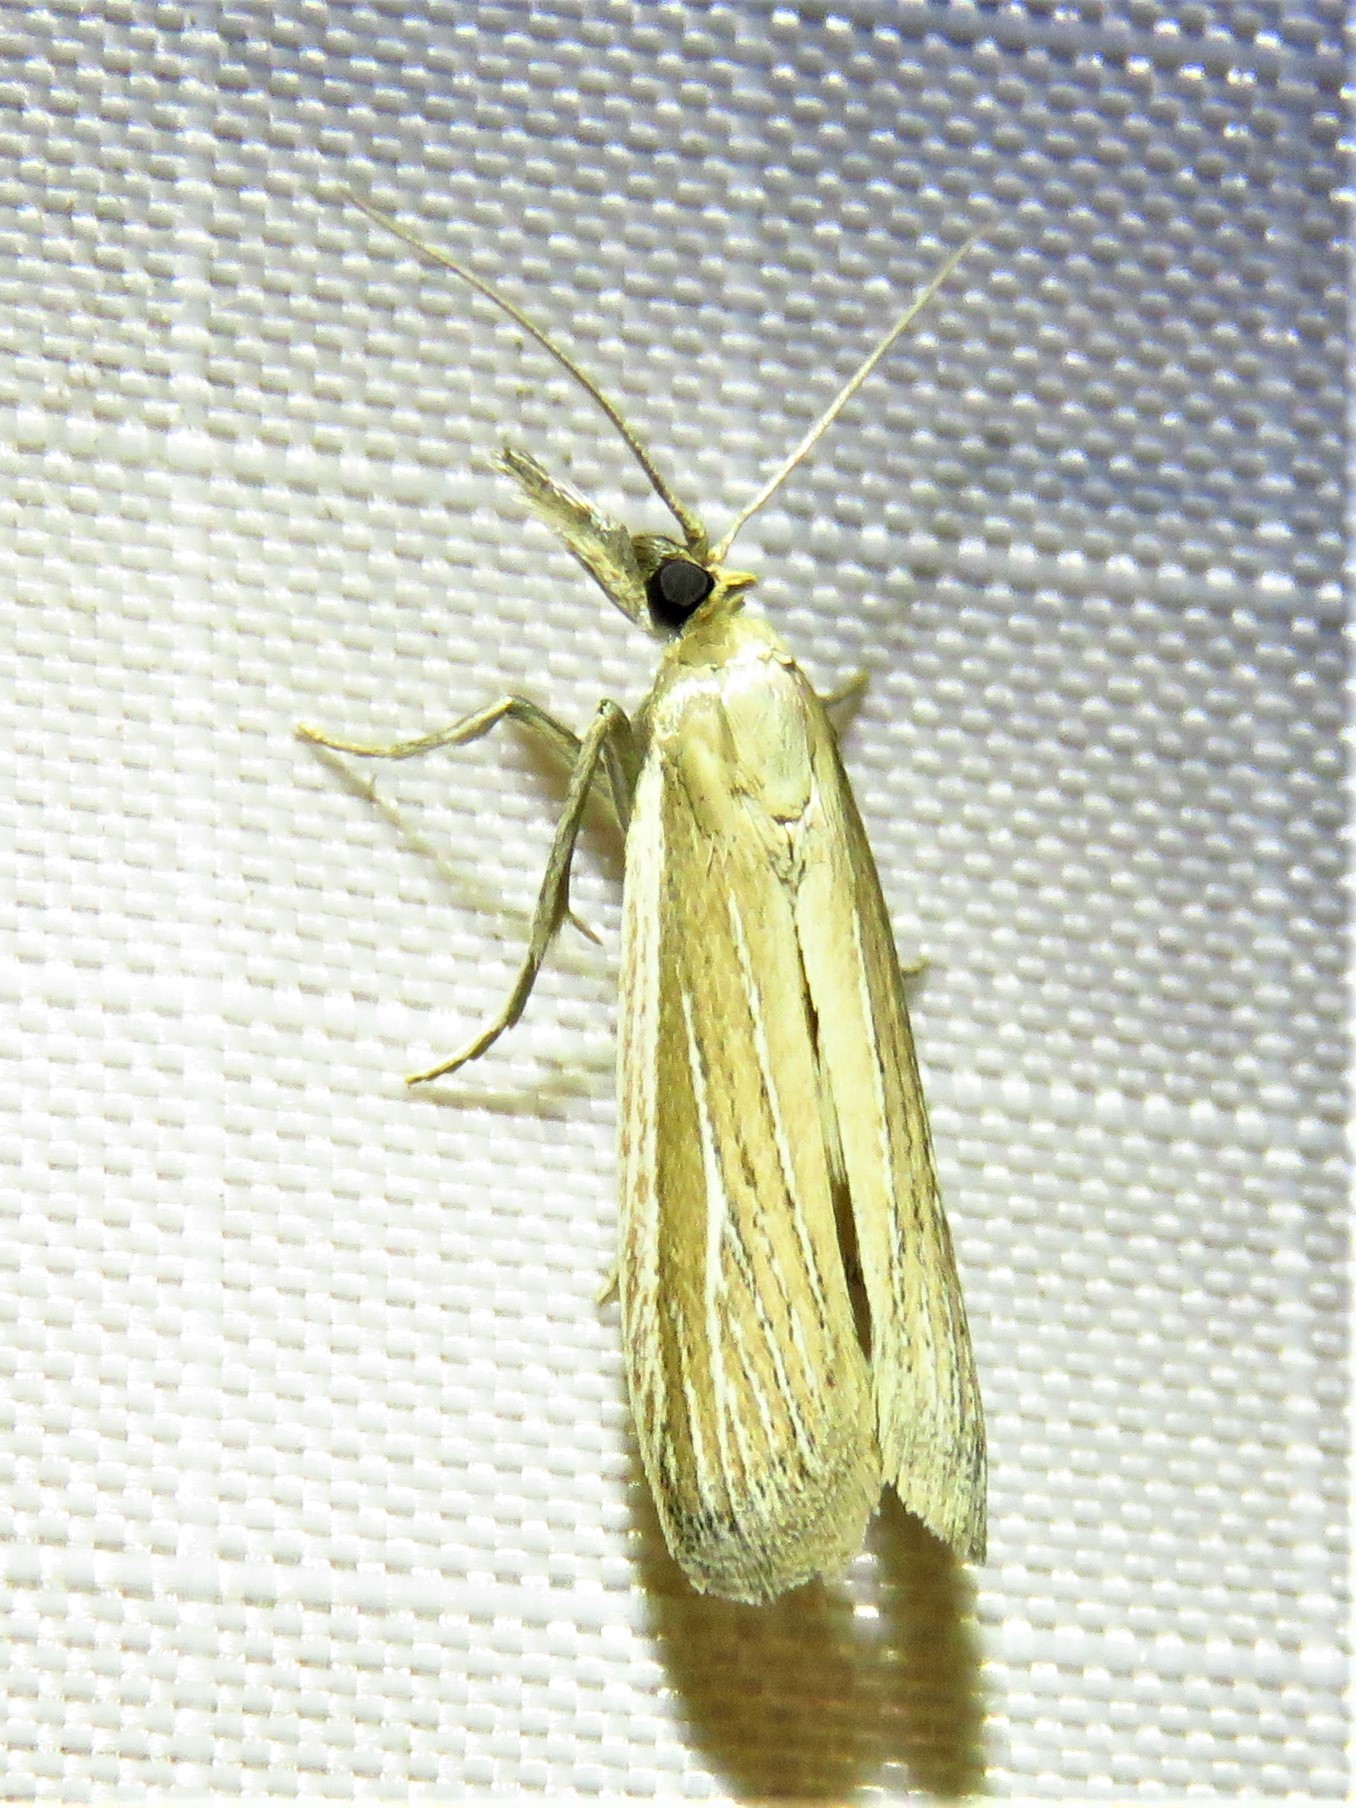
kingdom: Animalia
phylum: Arthropoda
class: Insecta
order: Lepidoptera
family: Pyralidae
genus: Peoria
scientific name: Peoria tetradella
